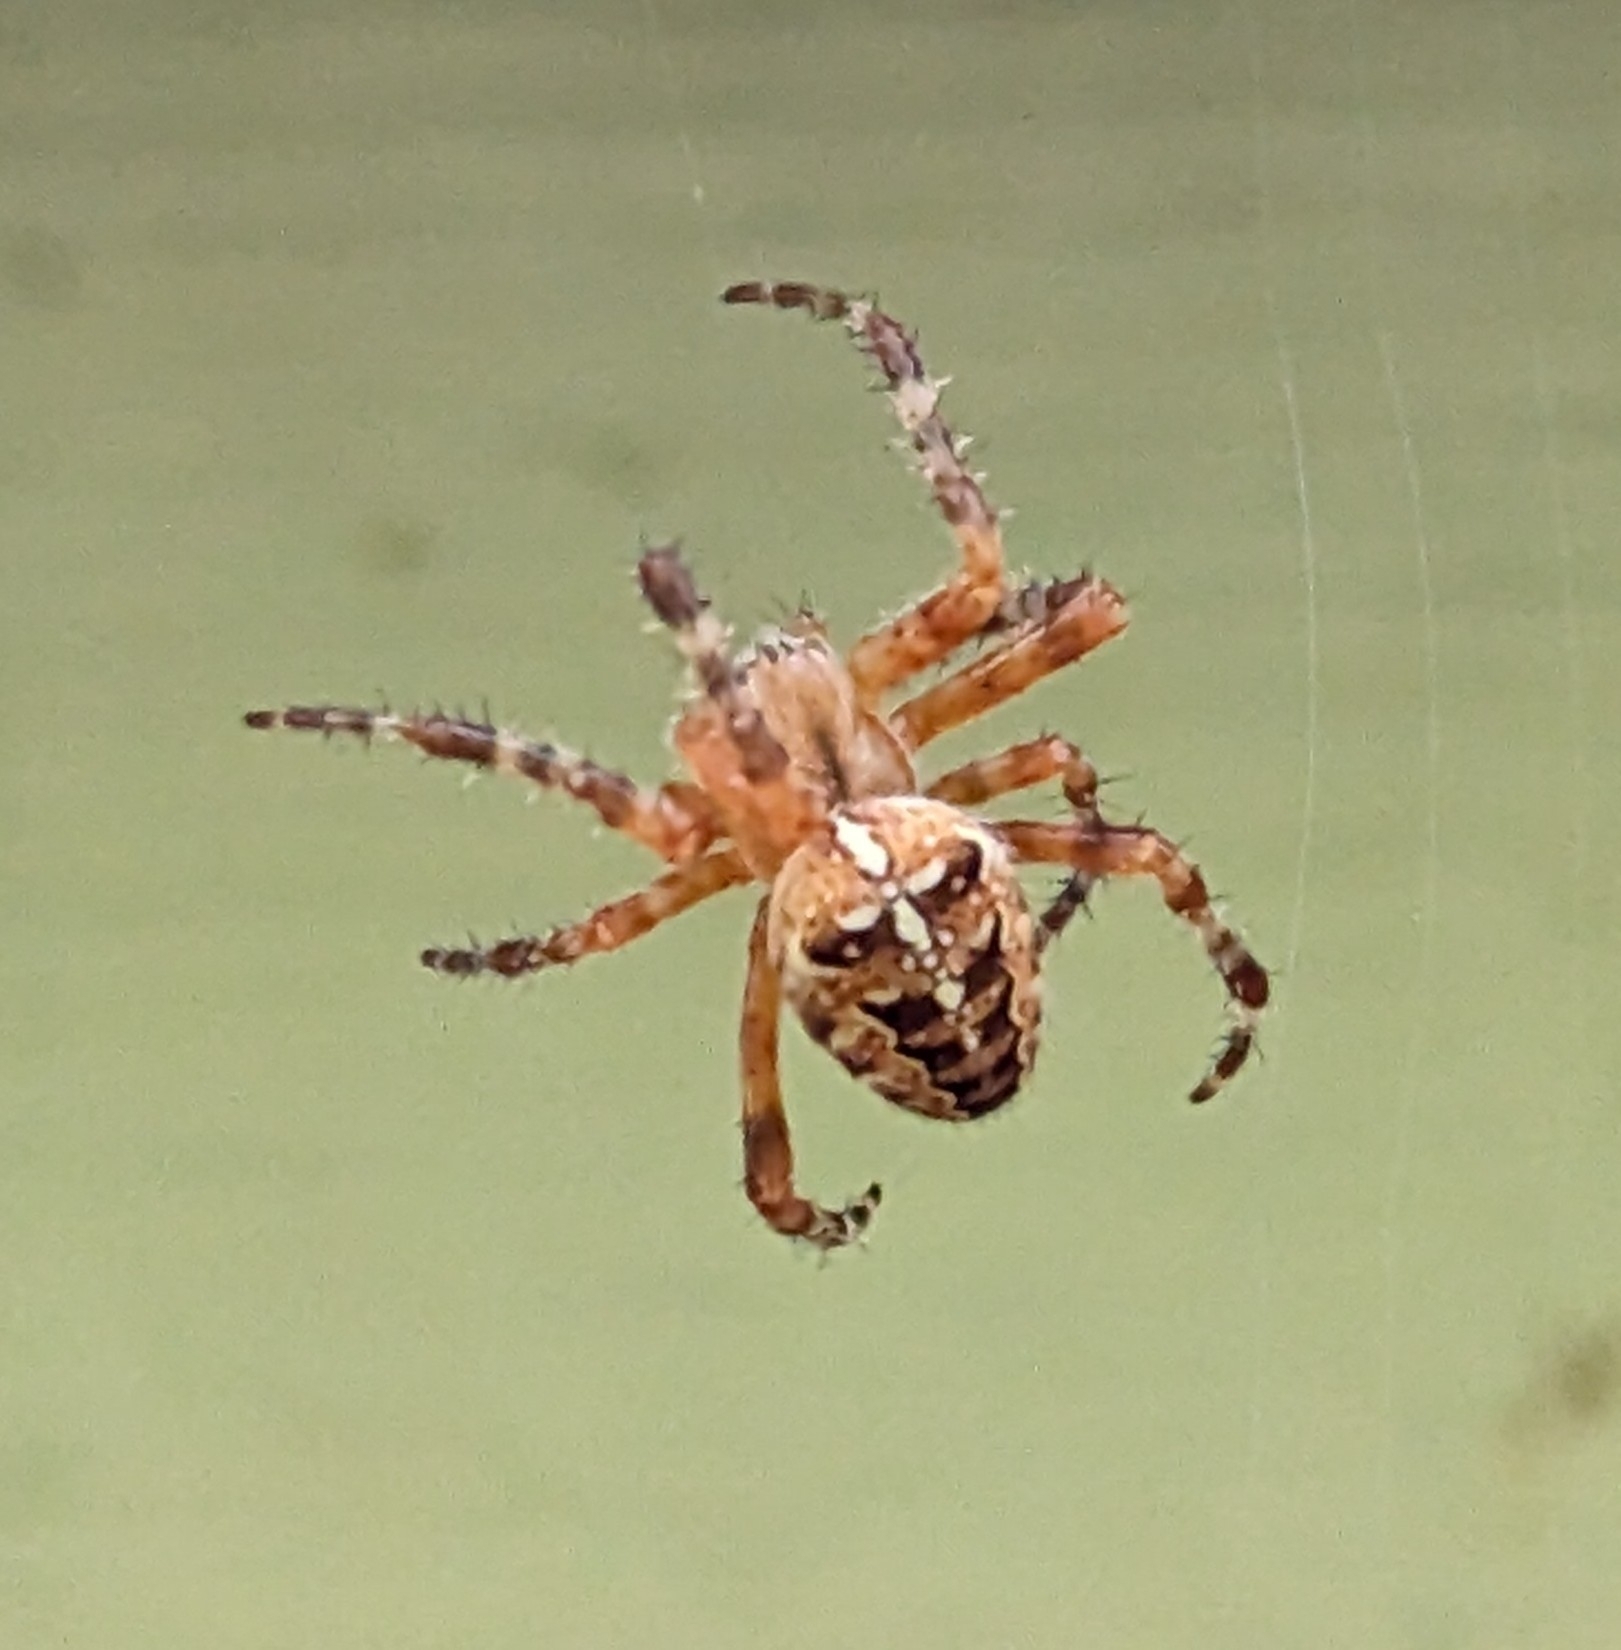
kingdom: Animalia
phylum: Arthropoda
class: Arachnida
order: Araneae
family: Araneidae
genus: Araneus
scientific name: Araneus diadematus
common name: Cross orbweaver
